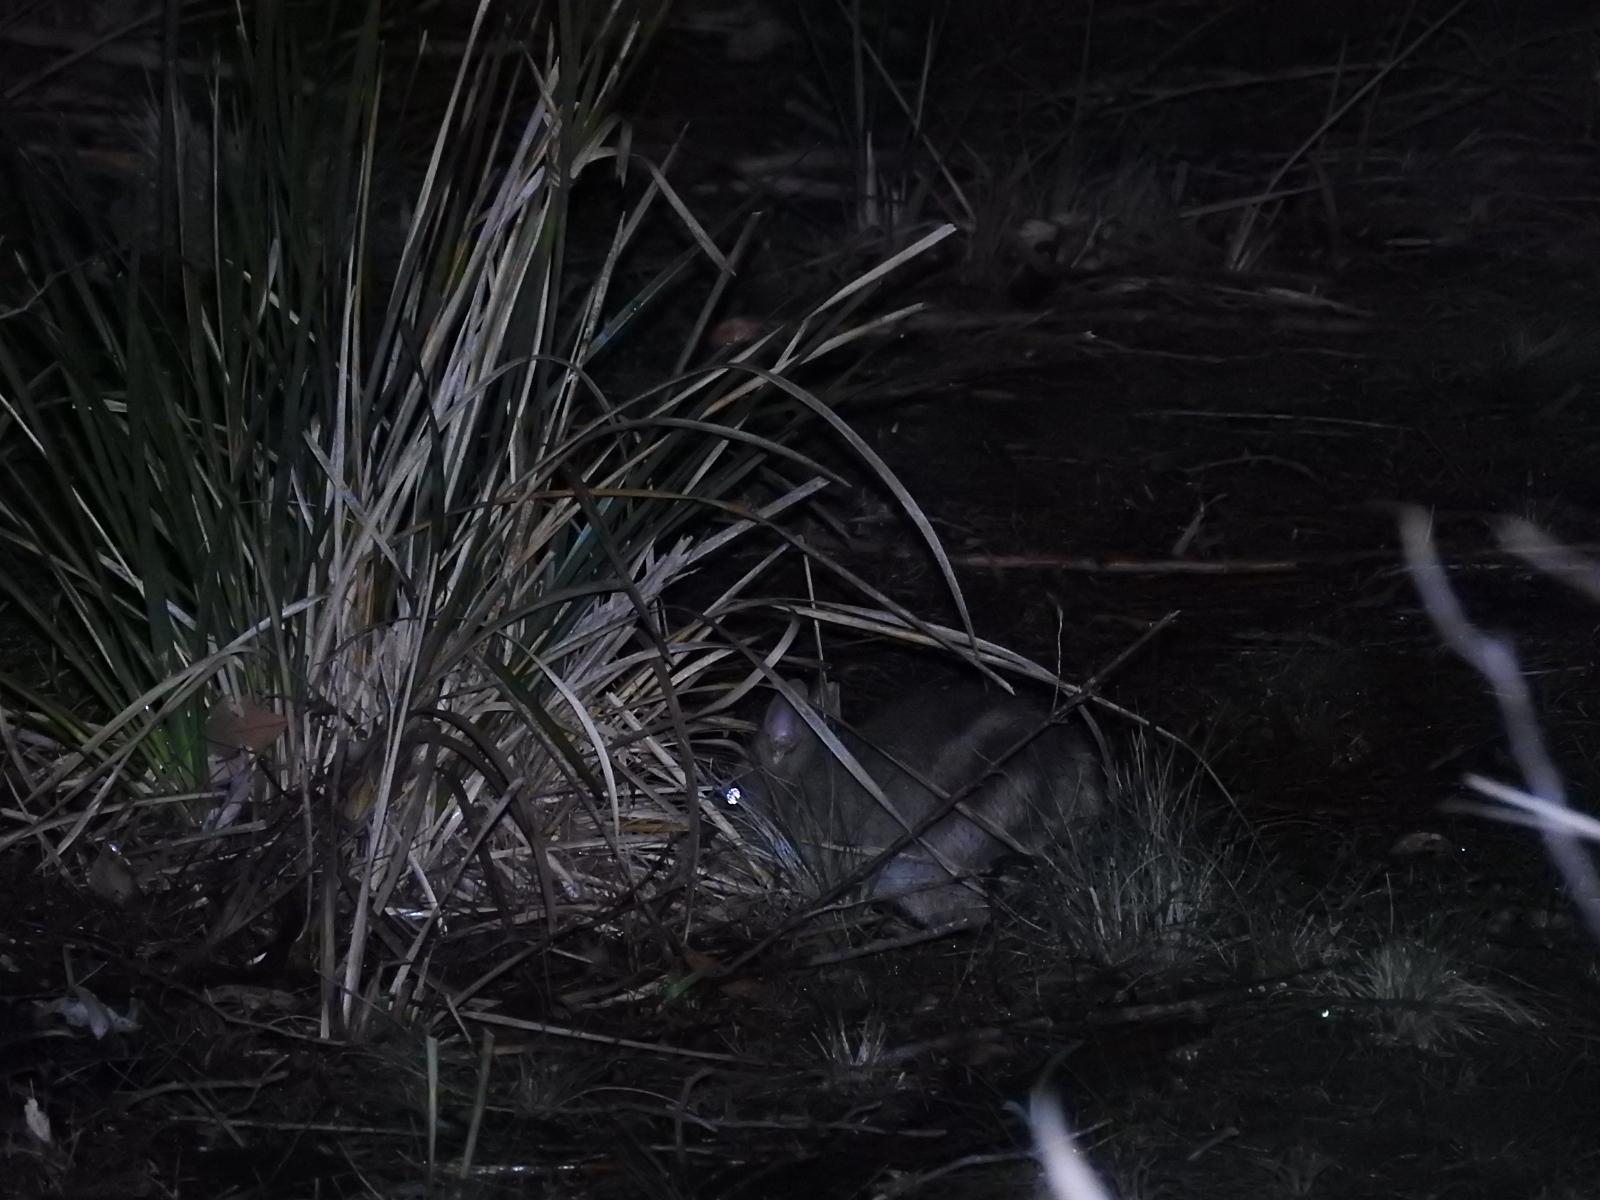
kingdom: Animalia
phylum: Chordata
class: Mammalia
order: Peramelemorphia
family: Peramelidae
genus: Perameles
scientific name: Perameles gunnii
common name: Eastern barred bandicoot
